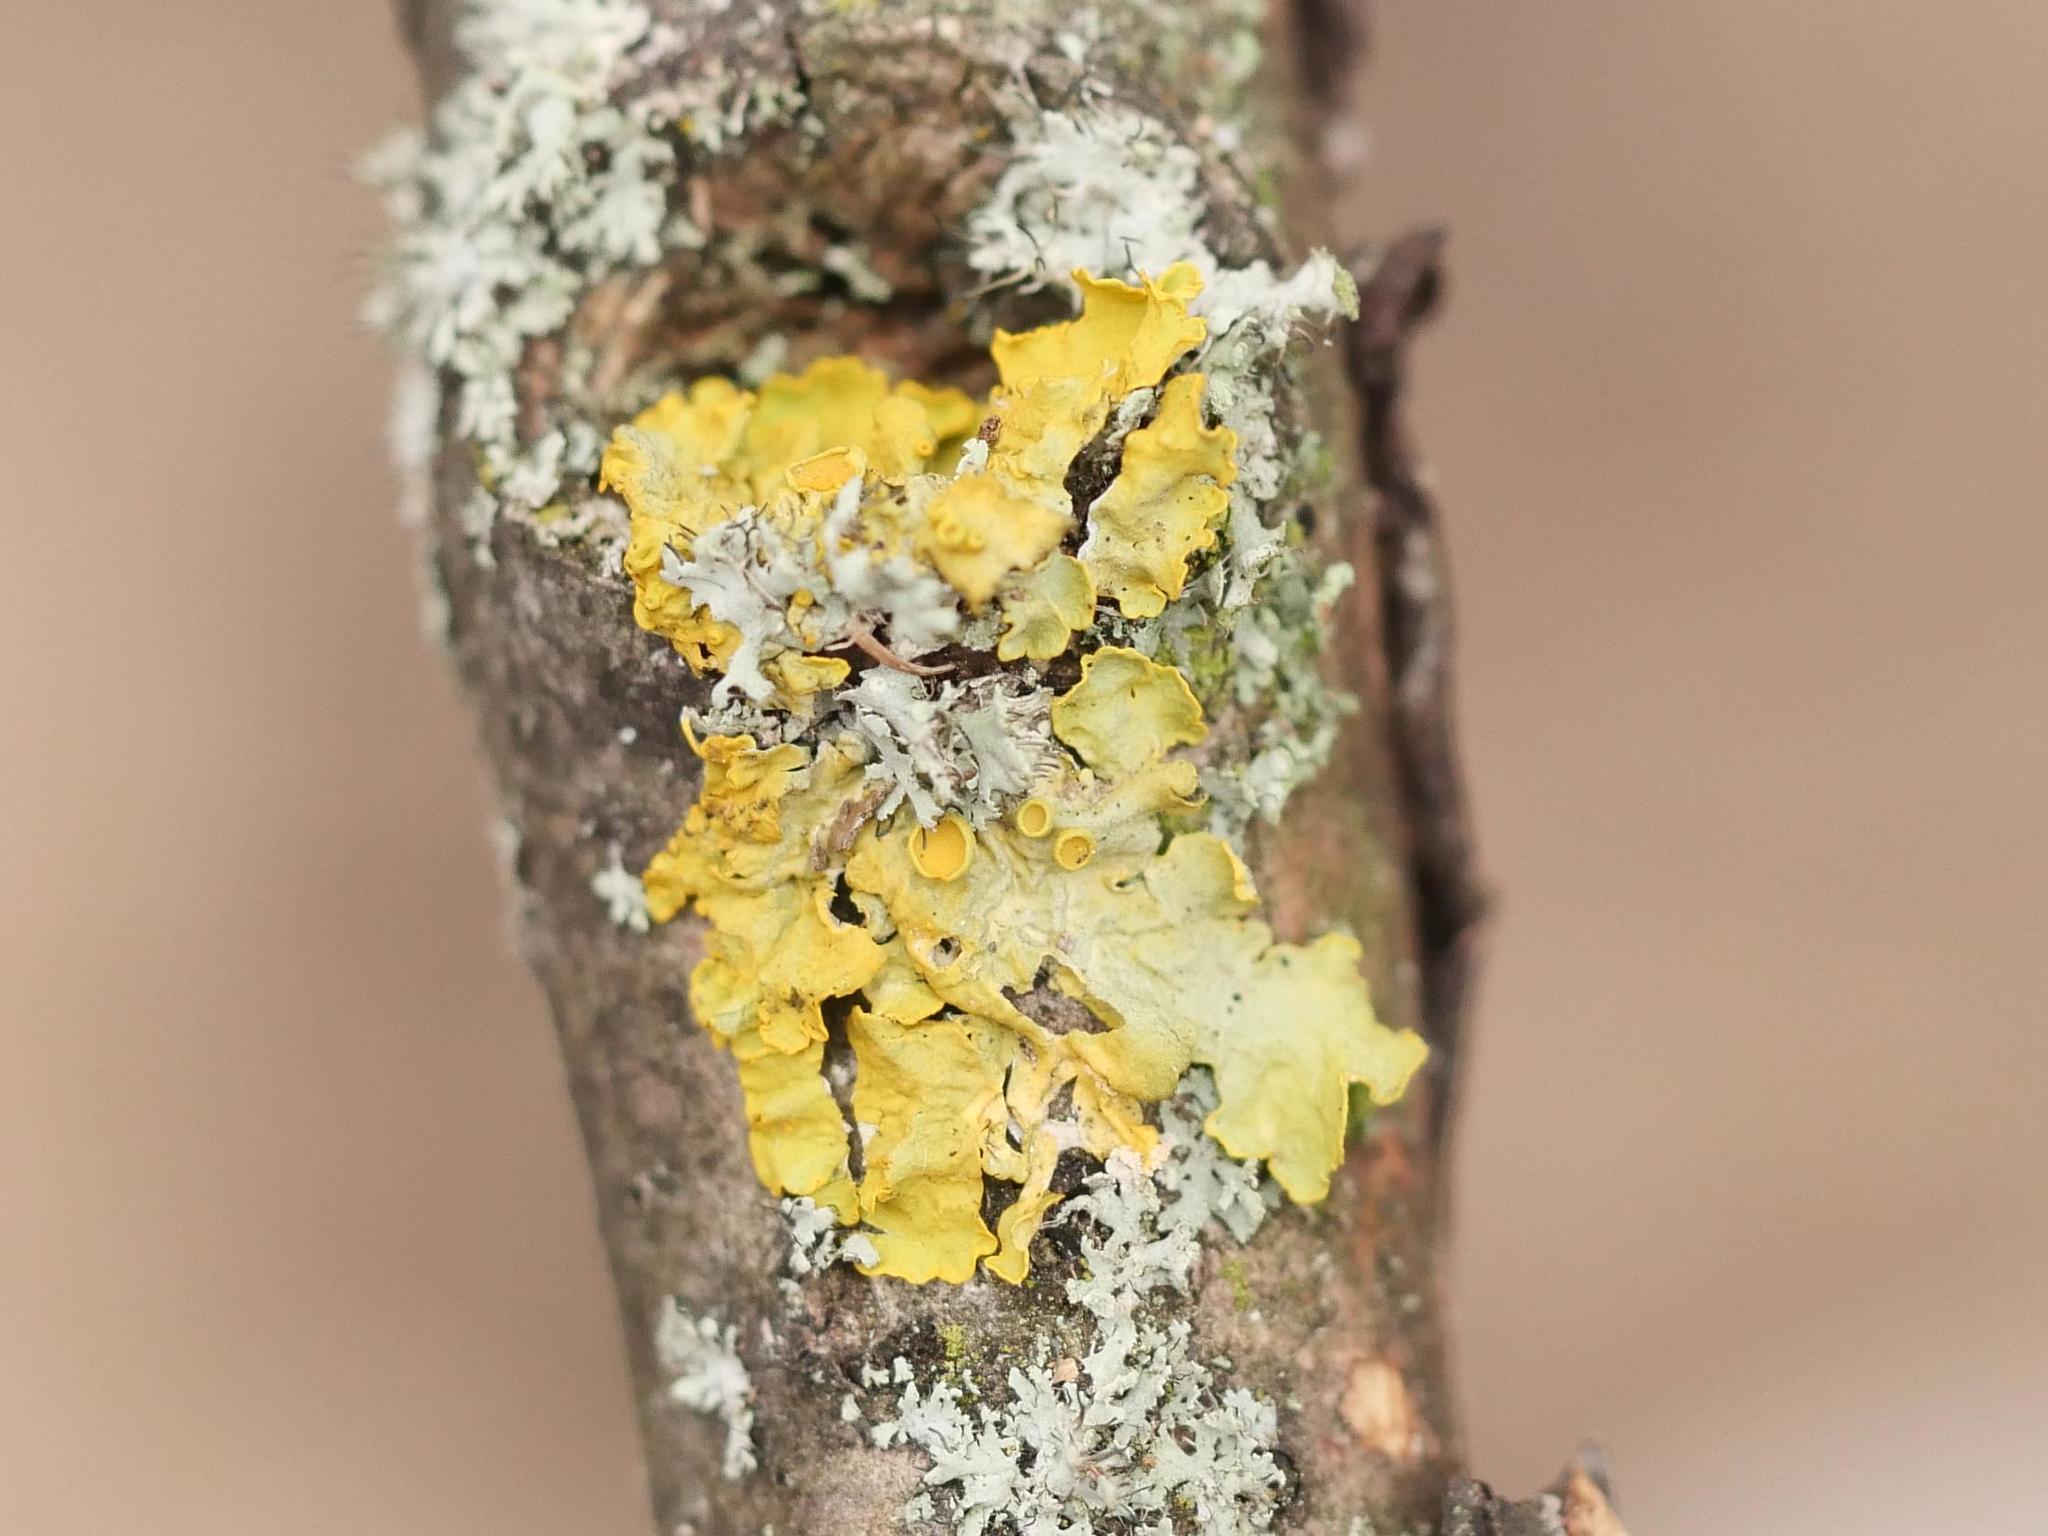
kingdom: Fungi
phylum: Ascomycota
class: Lecanoromycetes
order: Teloschistales
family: Teloschistaceae
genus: Xanthoria
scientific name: Xanthoria parietina
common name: Common orange lichen
